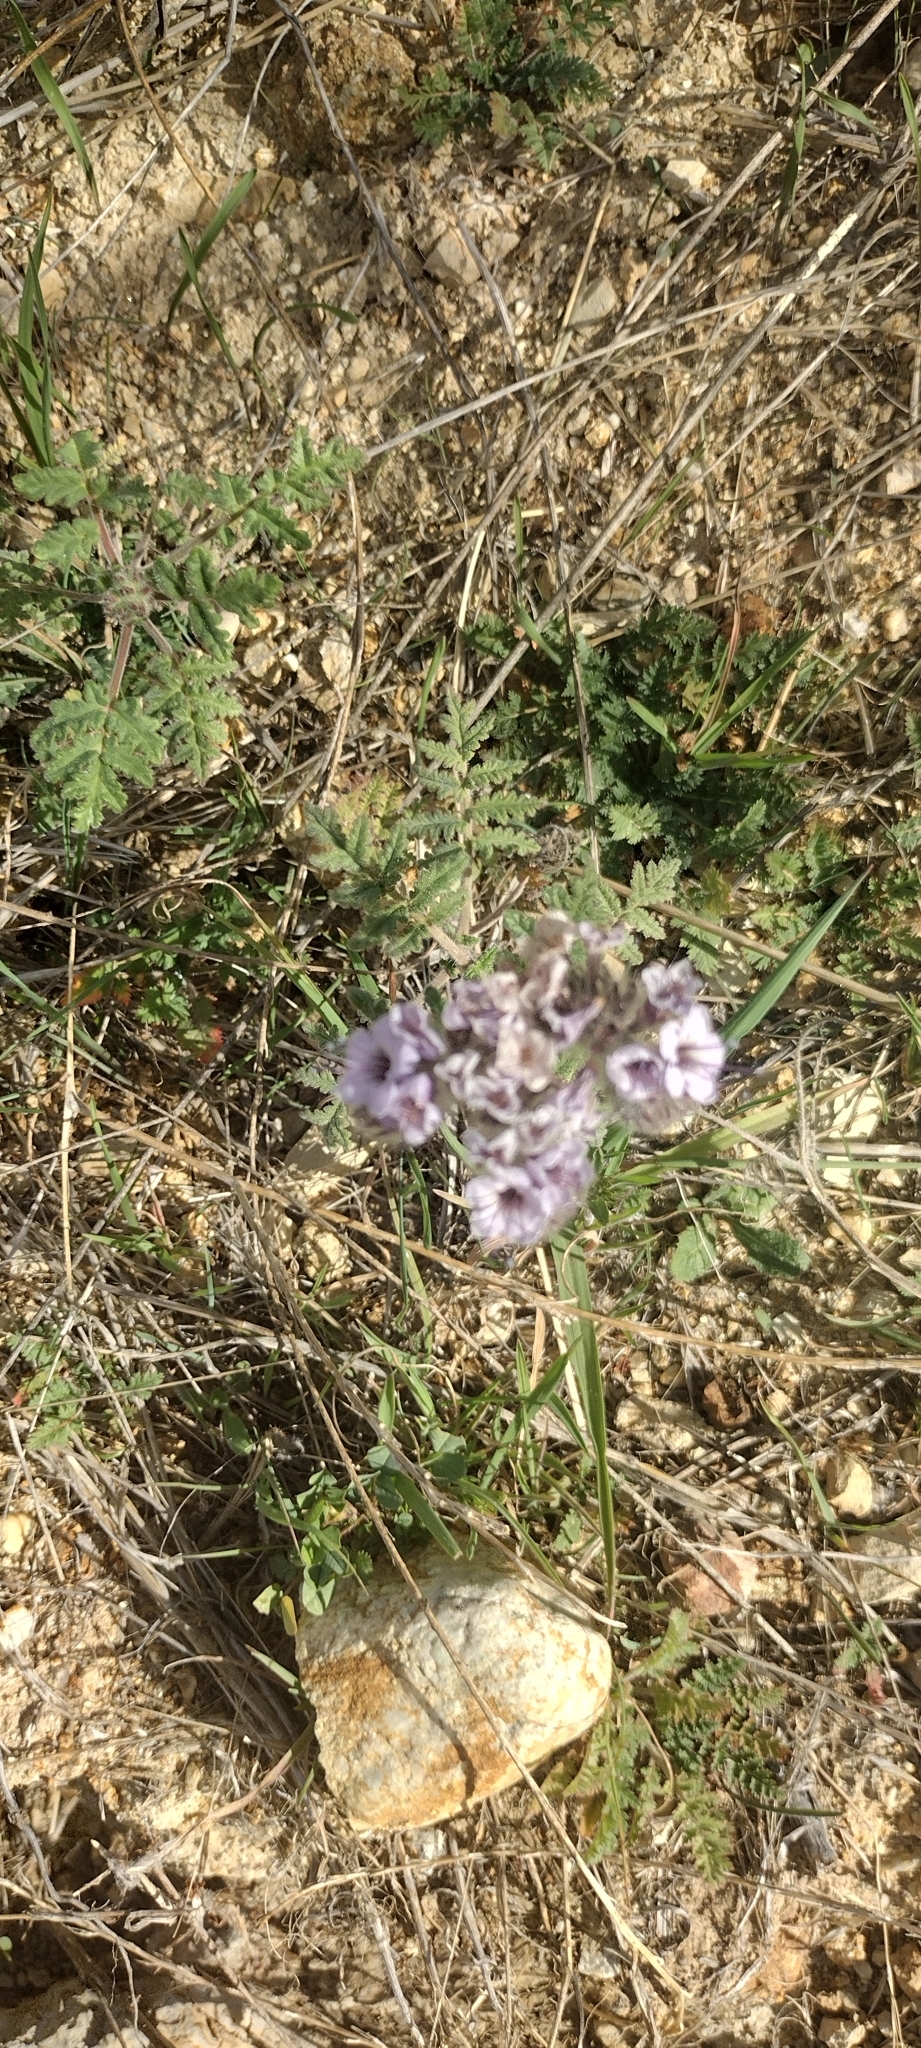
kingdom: Plantae
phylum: Tracheophyta
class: Magnoliopsida
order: Boraginales
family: Hydrophyllaceae
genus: Phacelia
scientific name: Phacelia hubbyi
